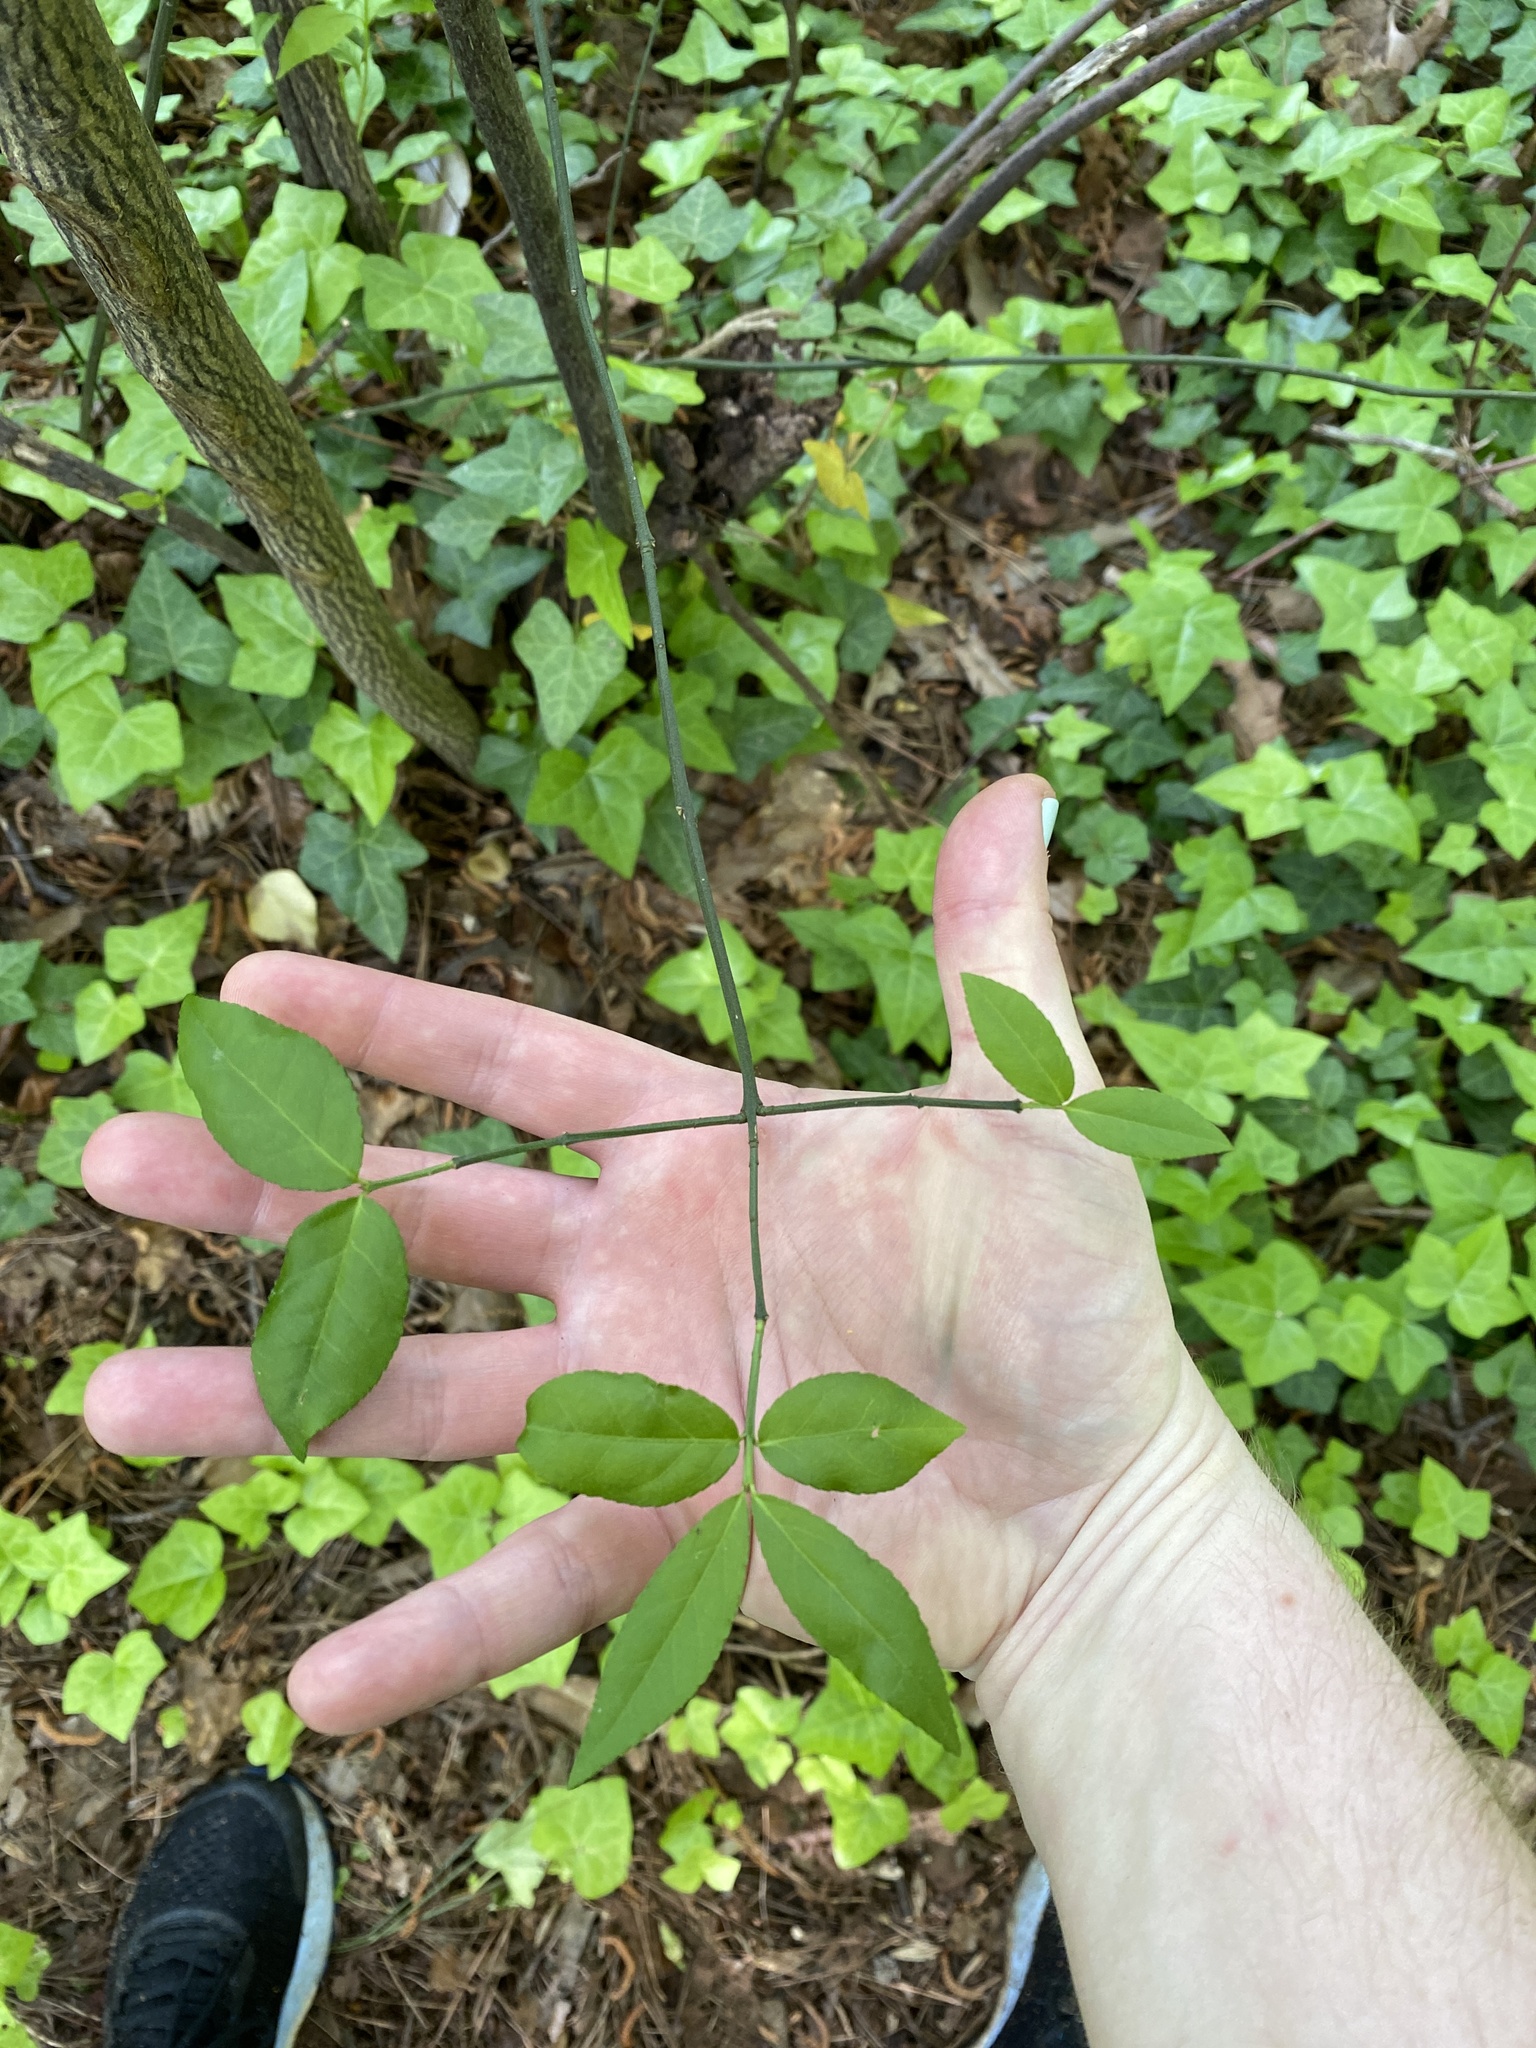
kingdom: Plantae
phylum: Tracheophyta
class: Magnoliopsida
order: Celastrales
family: Celastraceae
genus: Euonymus
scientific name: Euonymus americanus
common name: Bursting-heart
